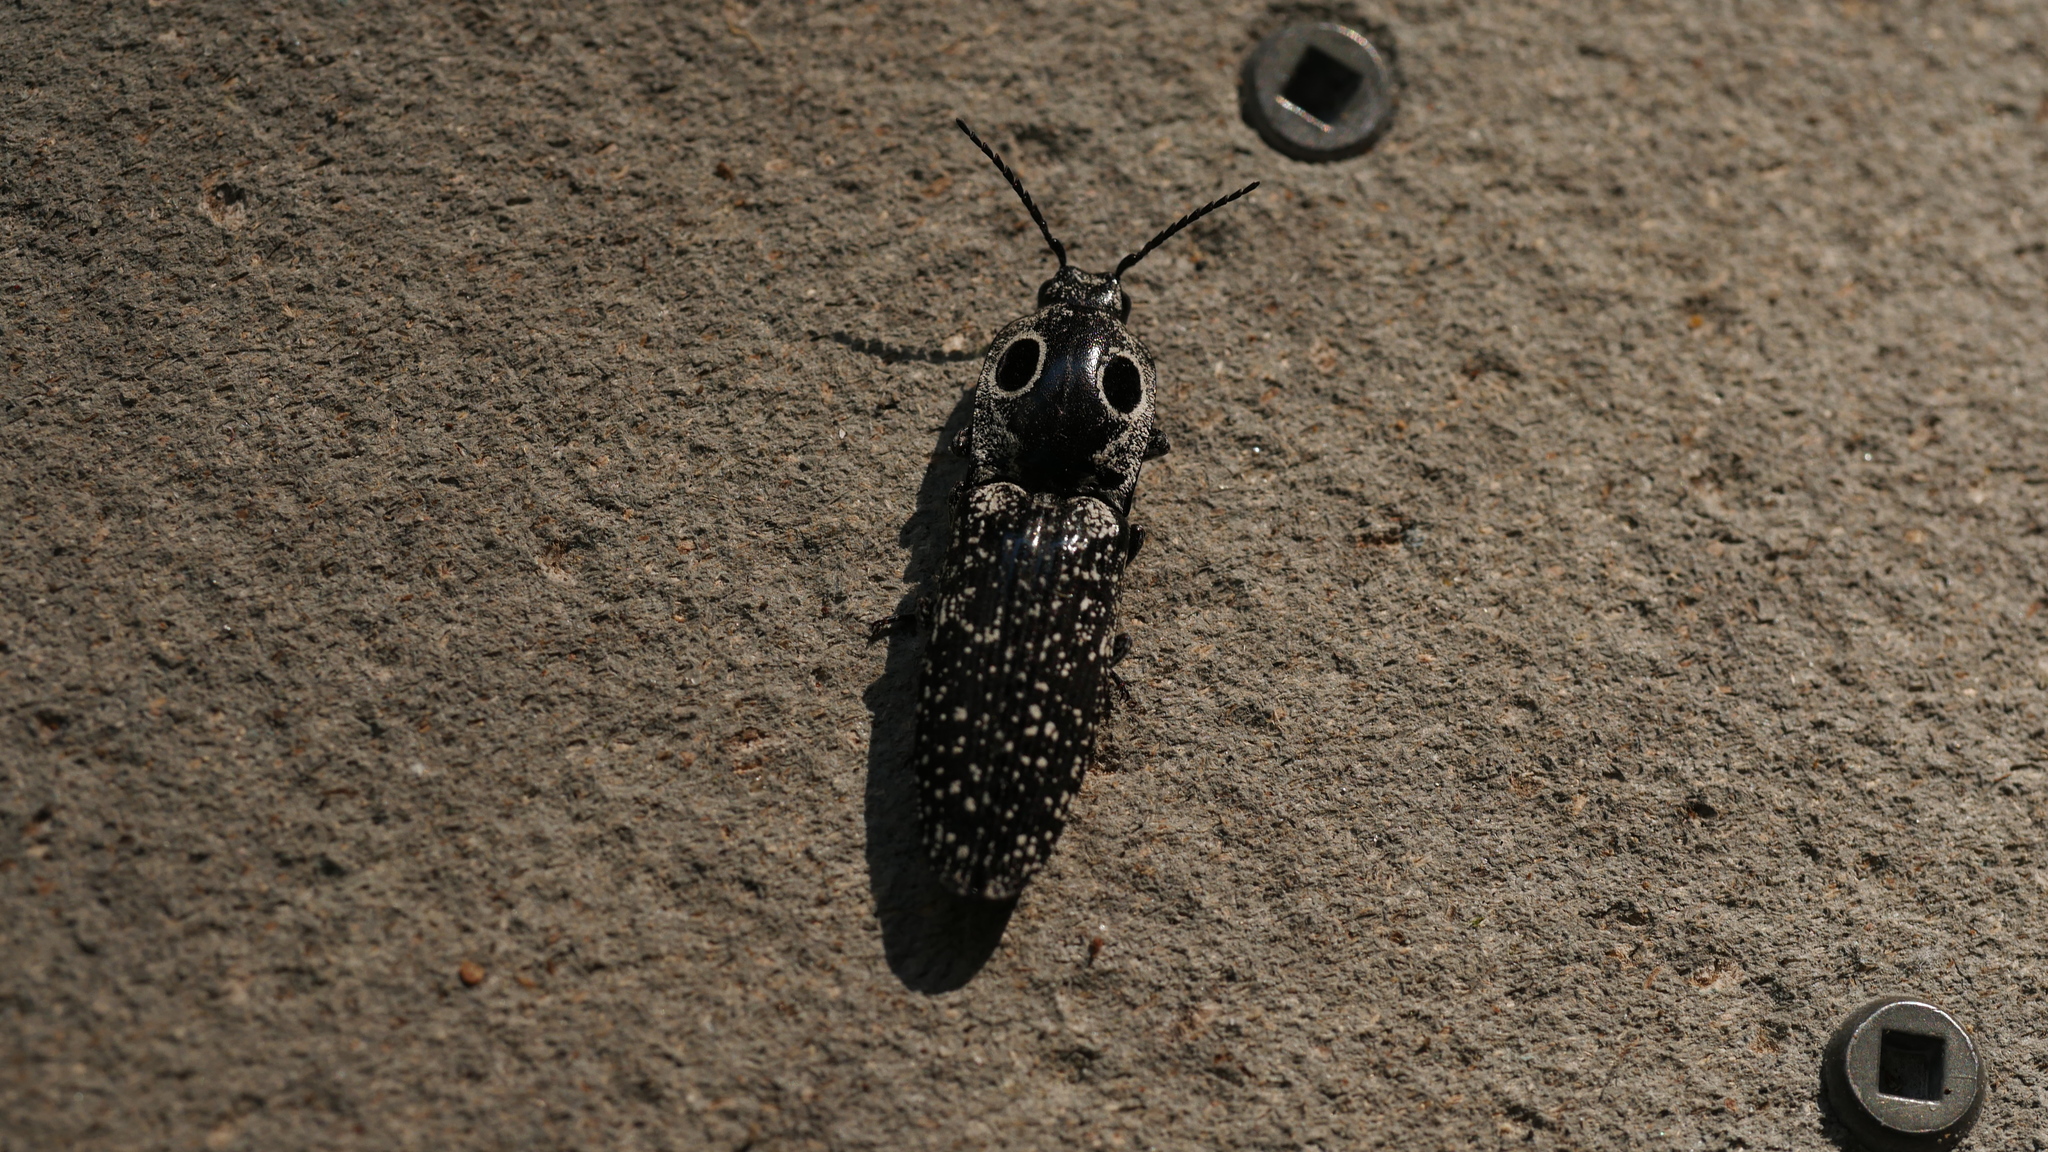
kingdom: Animalia
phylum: Arthropoda
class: Insecta
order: Coleoptera
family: Elateridae
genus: Alaus
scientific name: Alaus oculatus
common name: Eastern eyed click beetle
